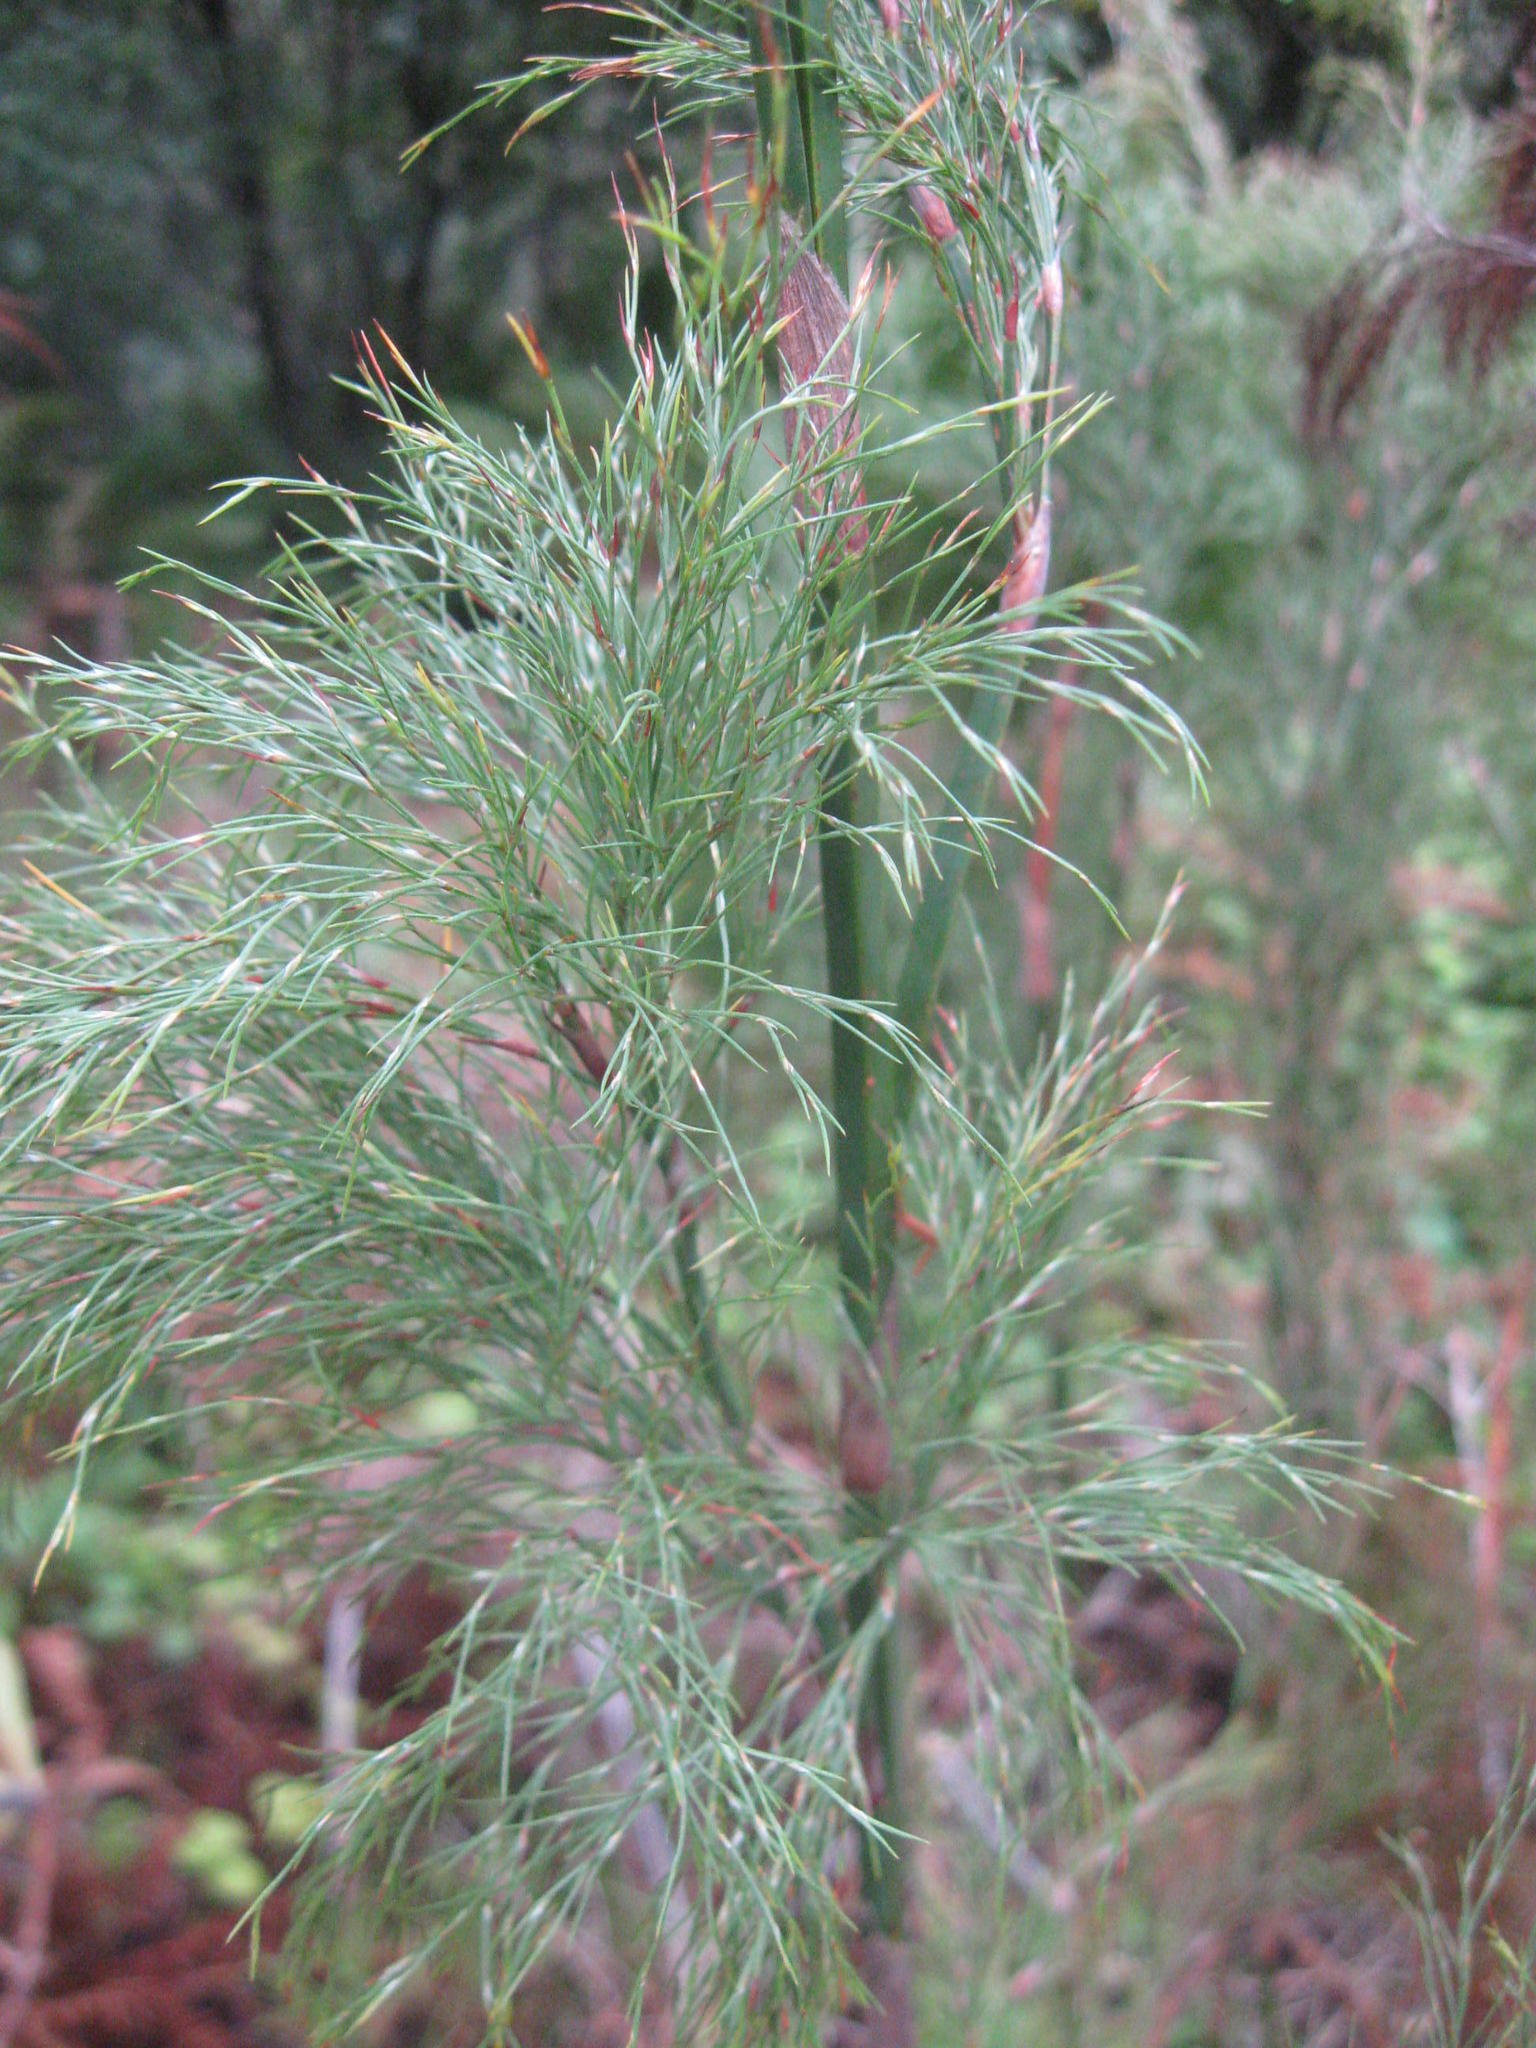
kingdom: Plantae
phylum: Tracheophyta
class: Liliopsida
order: Poales
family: Restionaceae
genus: Restio
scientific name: Restio quadratus
